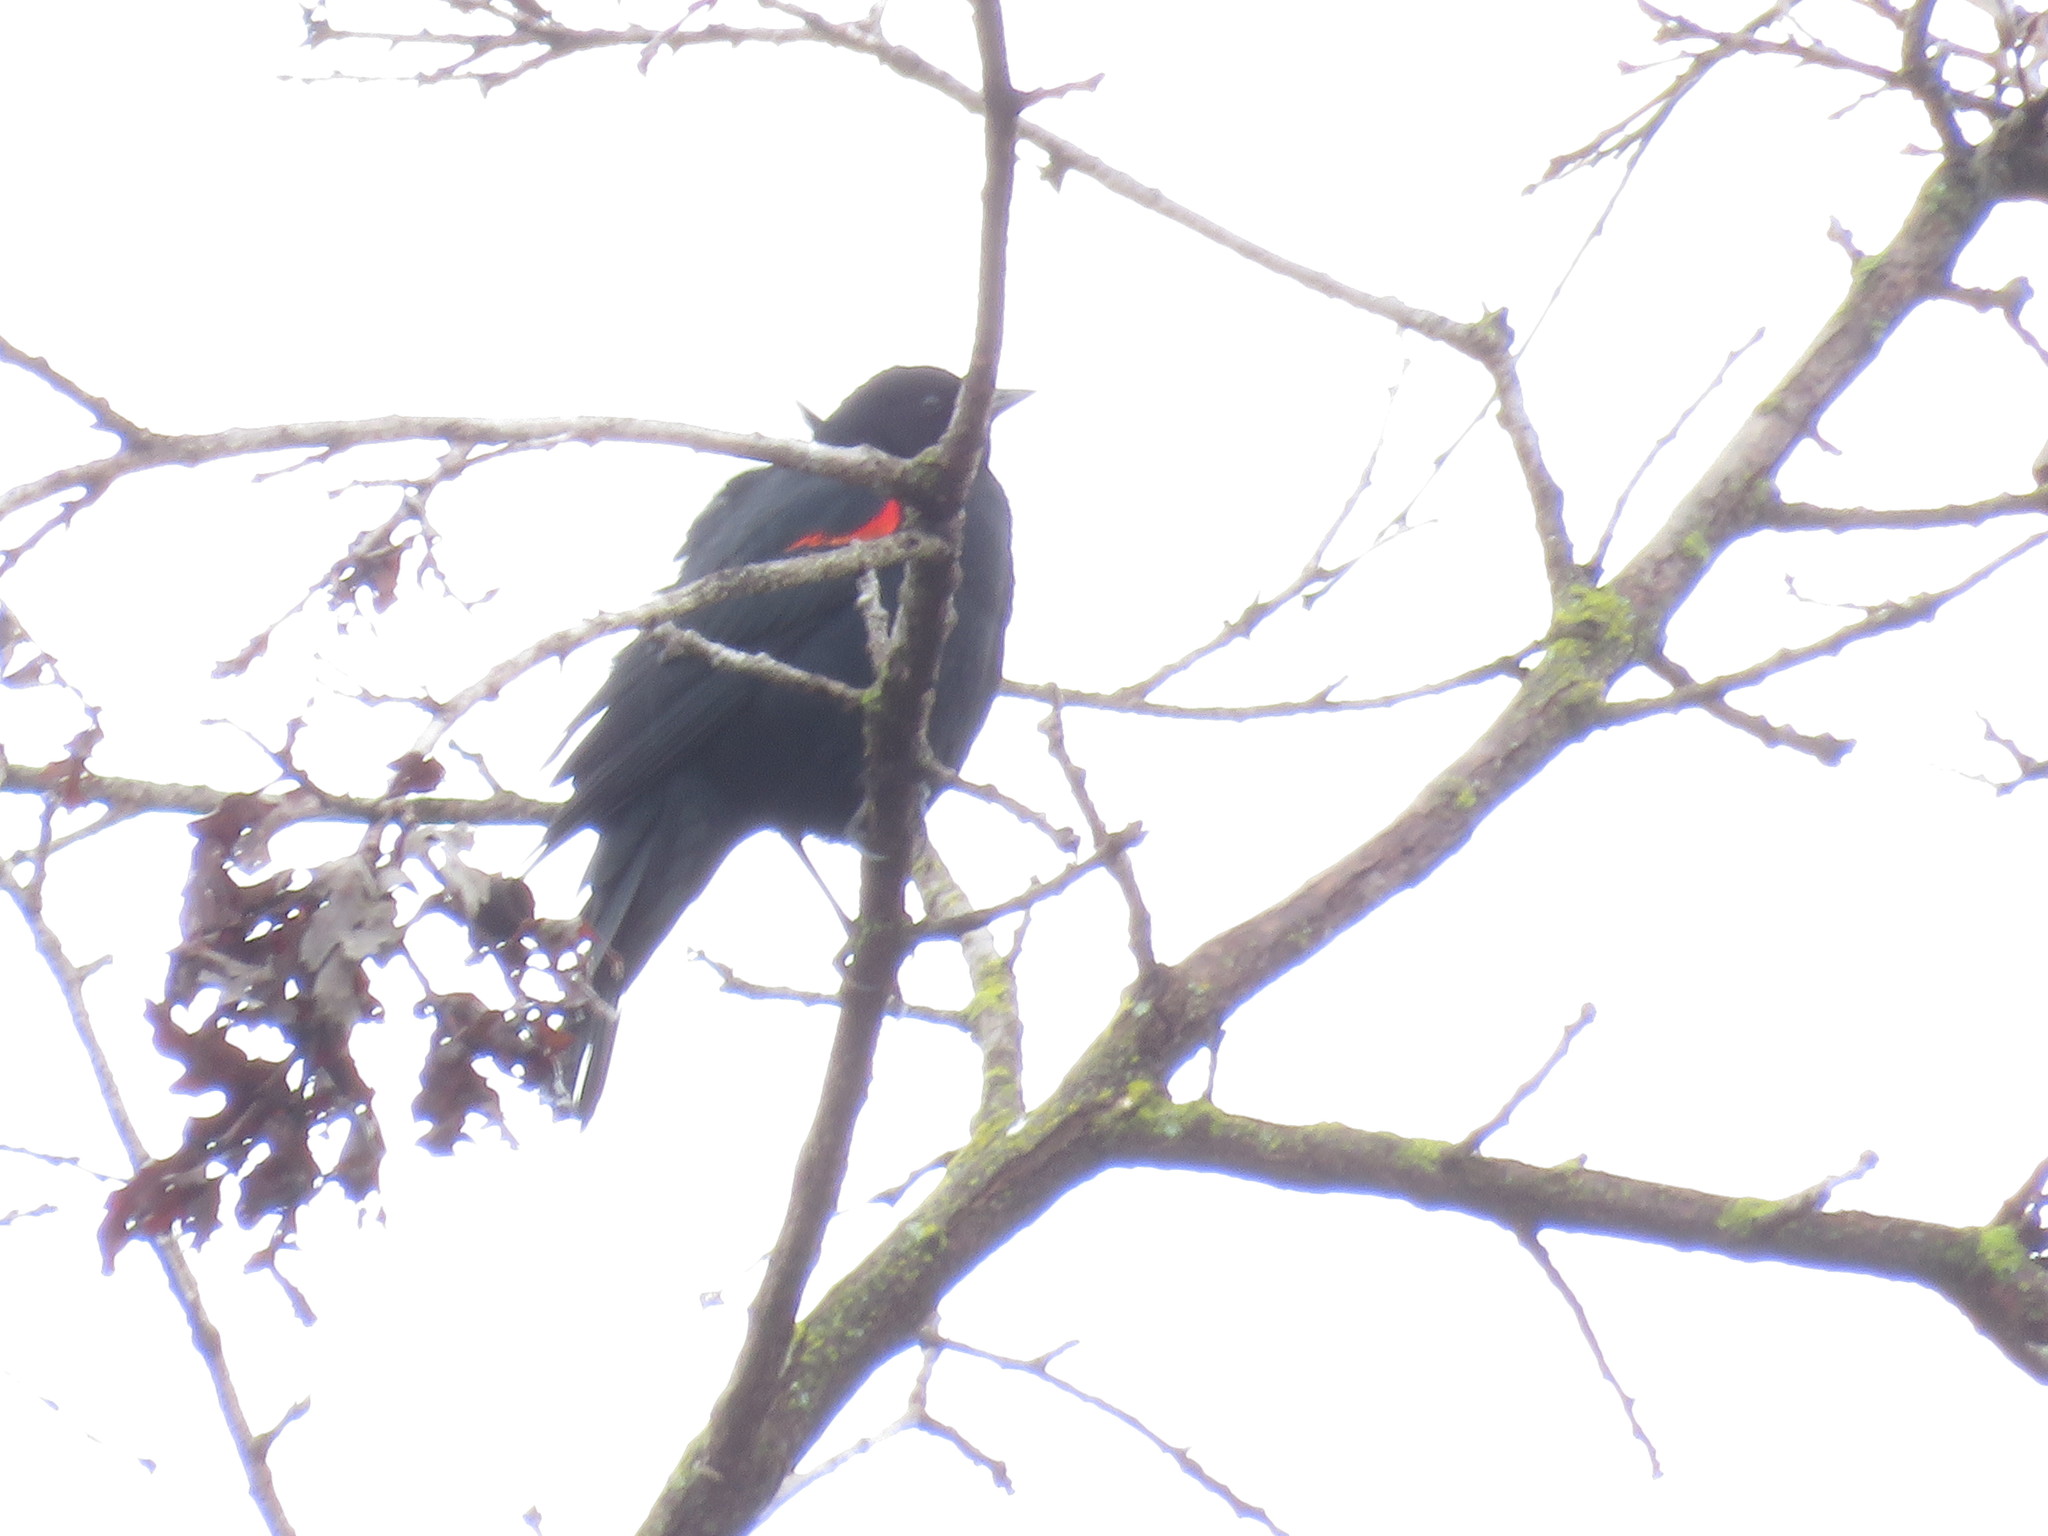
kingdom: Animalia
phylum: Chordata
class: Aves
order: Passeriformes
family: Icteridae
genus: Agelaius
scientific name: Agelaius phoeniceus
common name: Red-winged blackbird
